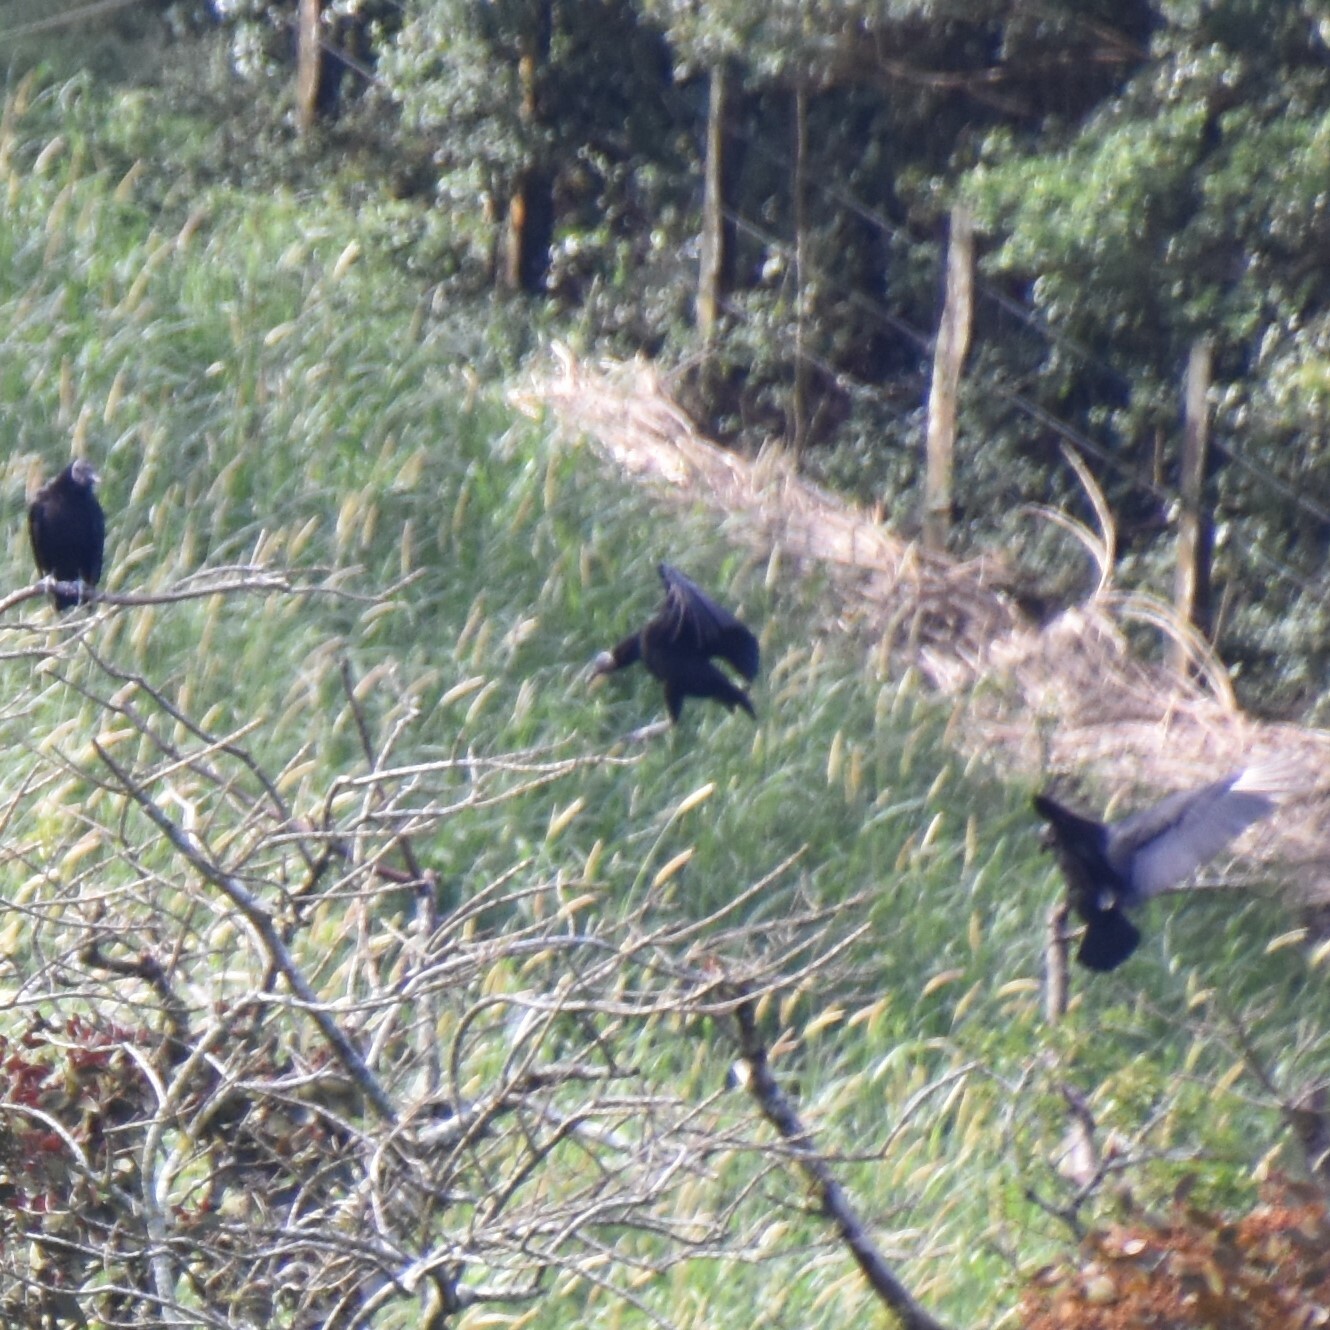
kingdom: Animalia
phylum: Chordata
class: Aves
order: Accipitriformes
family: Cathartidae
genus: Coragyps
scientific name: Coragyps atratus
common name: Black vulture
